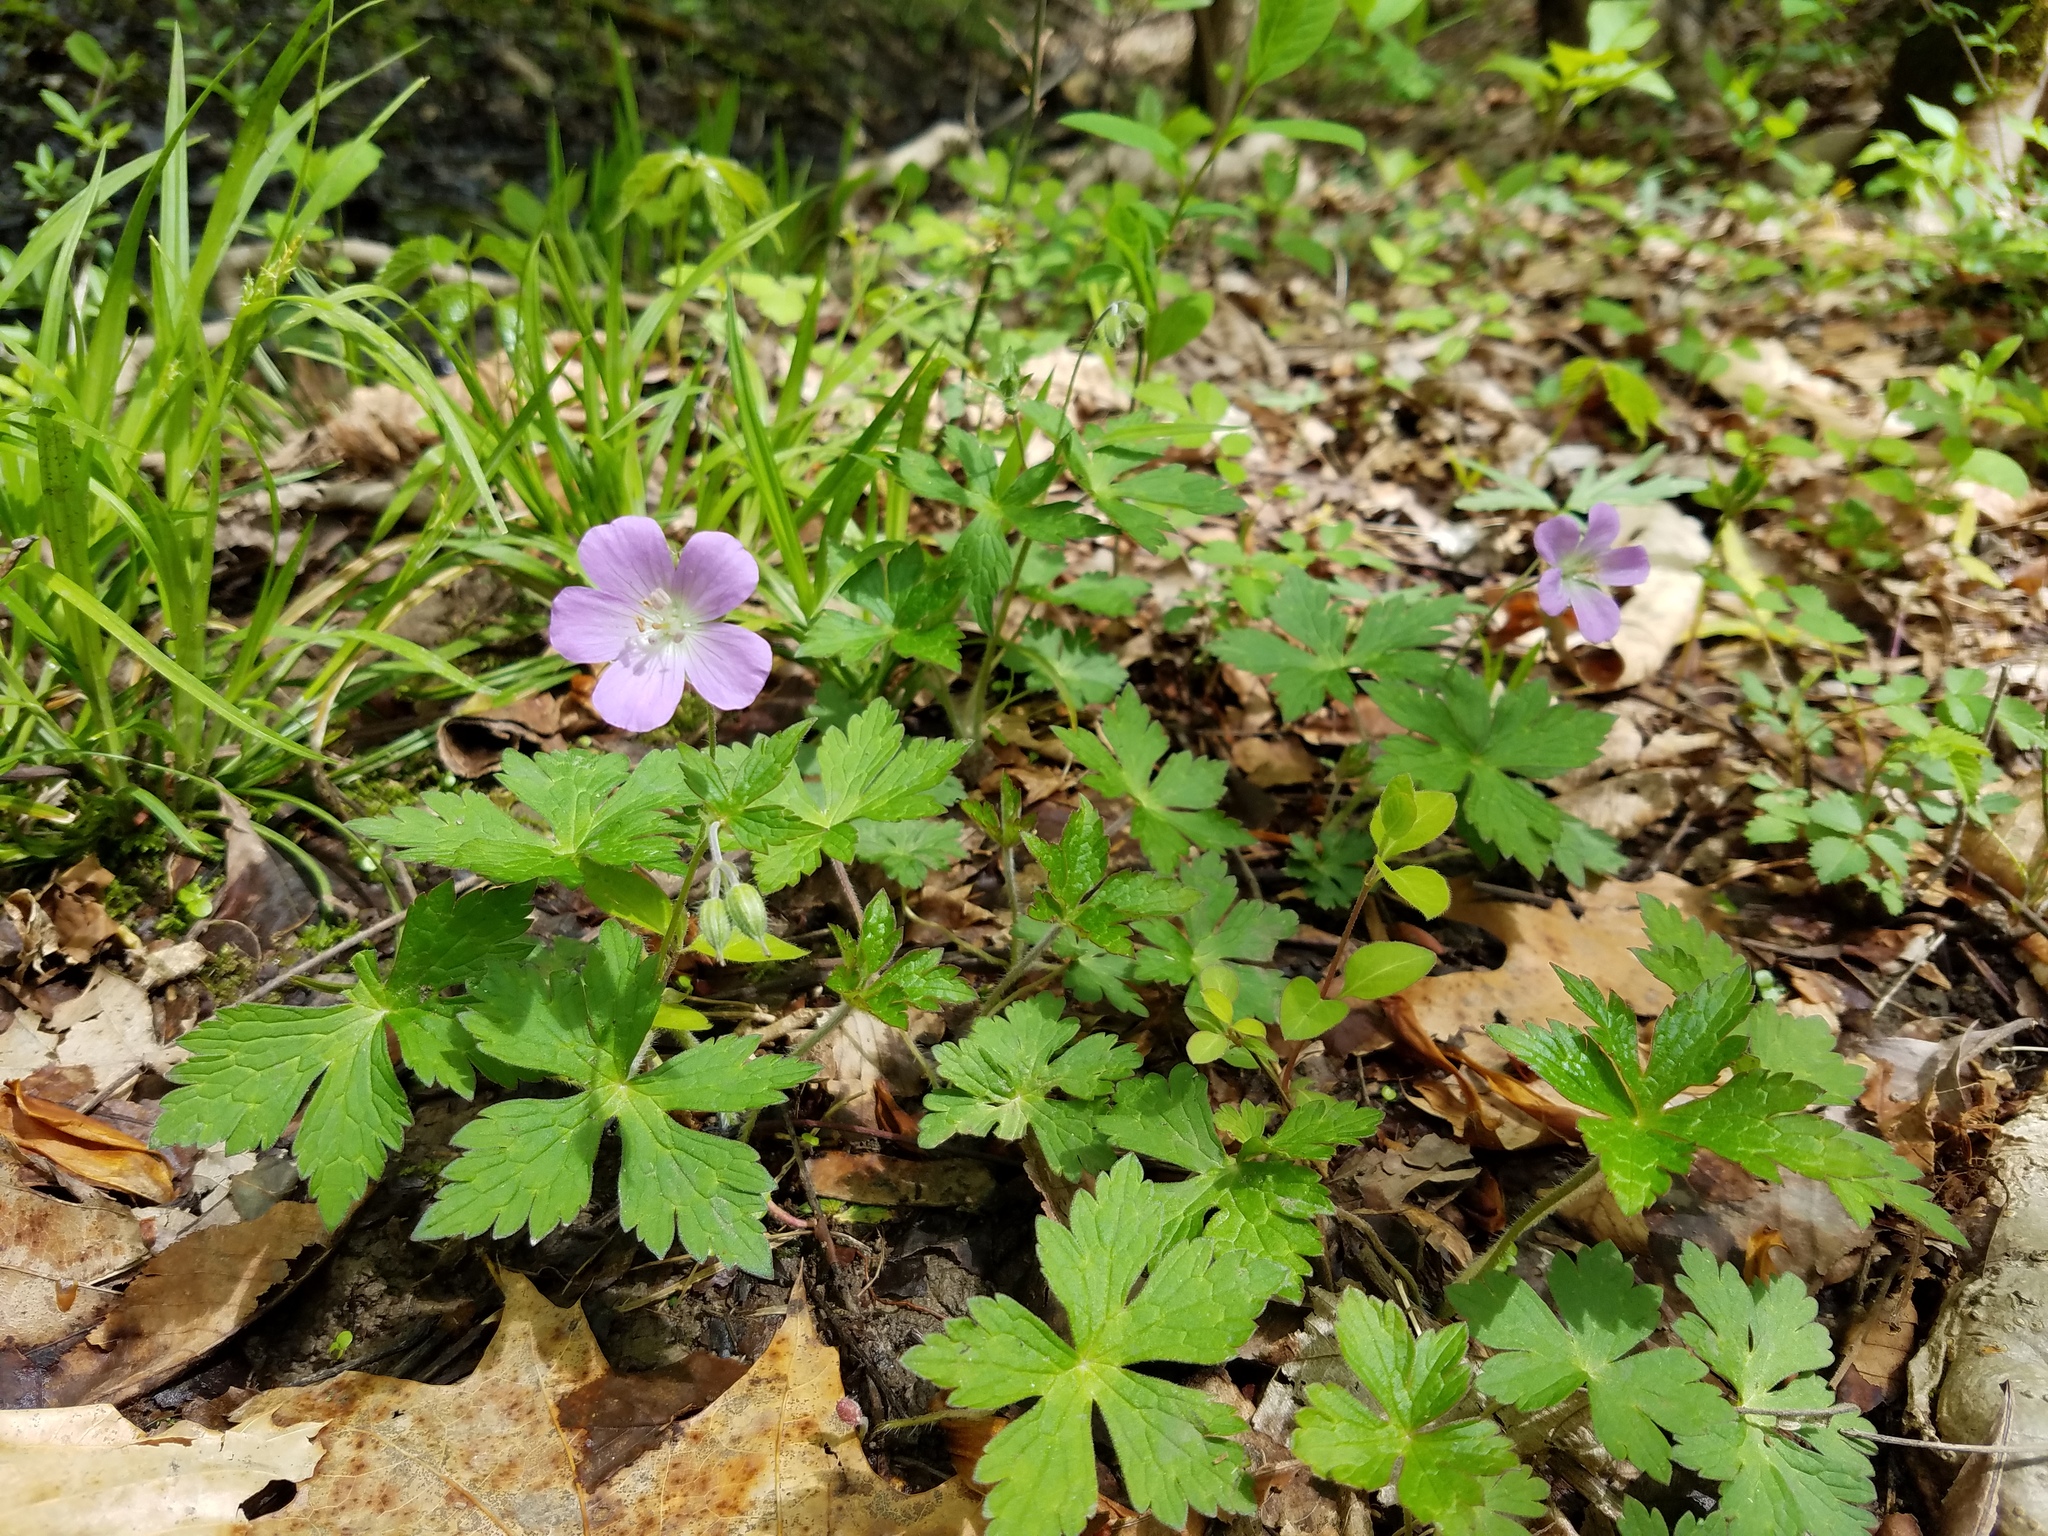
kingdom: Plantae
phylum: Tracheophyta
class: Magnoliopsida
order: Geraniales
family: Geraniaceae
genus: Geranium
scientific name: Geranium maculatum
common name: Spotted geranium
